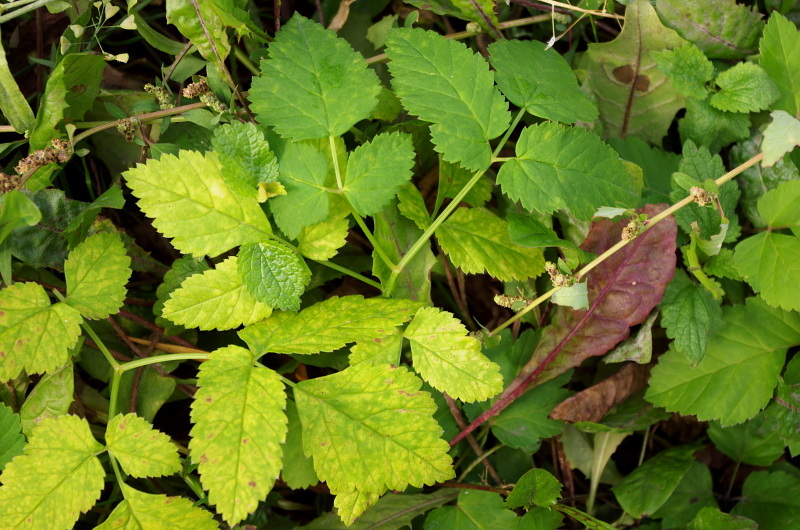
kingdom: Plantae
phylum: Tracheophyta
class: Magnoliopsida
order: Apiales
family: Apiaceae
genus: Aegopodium
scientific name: Aegopodium podagraria
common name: Ground-elder
